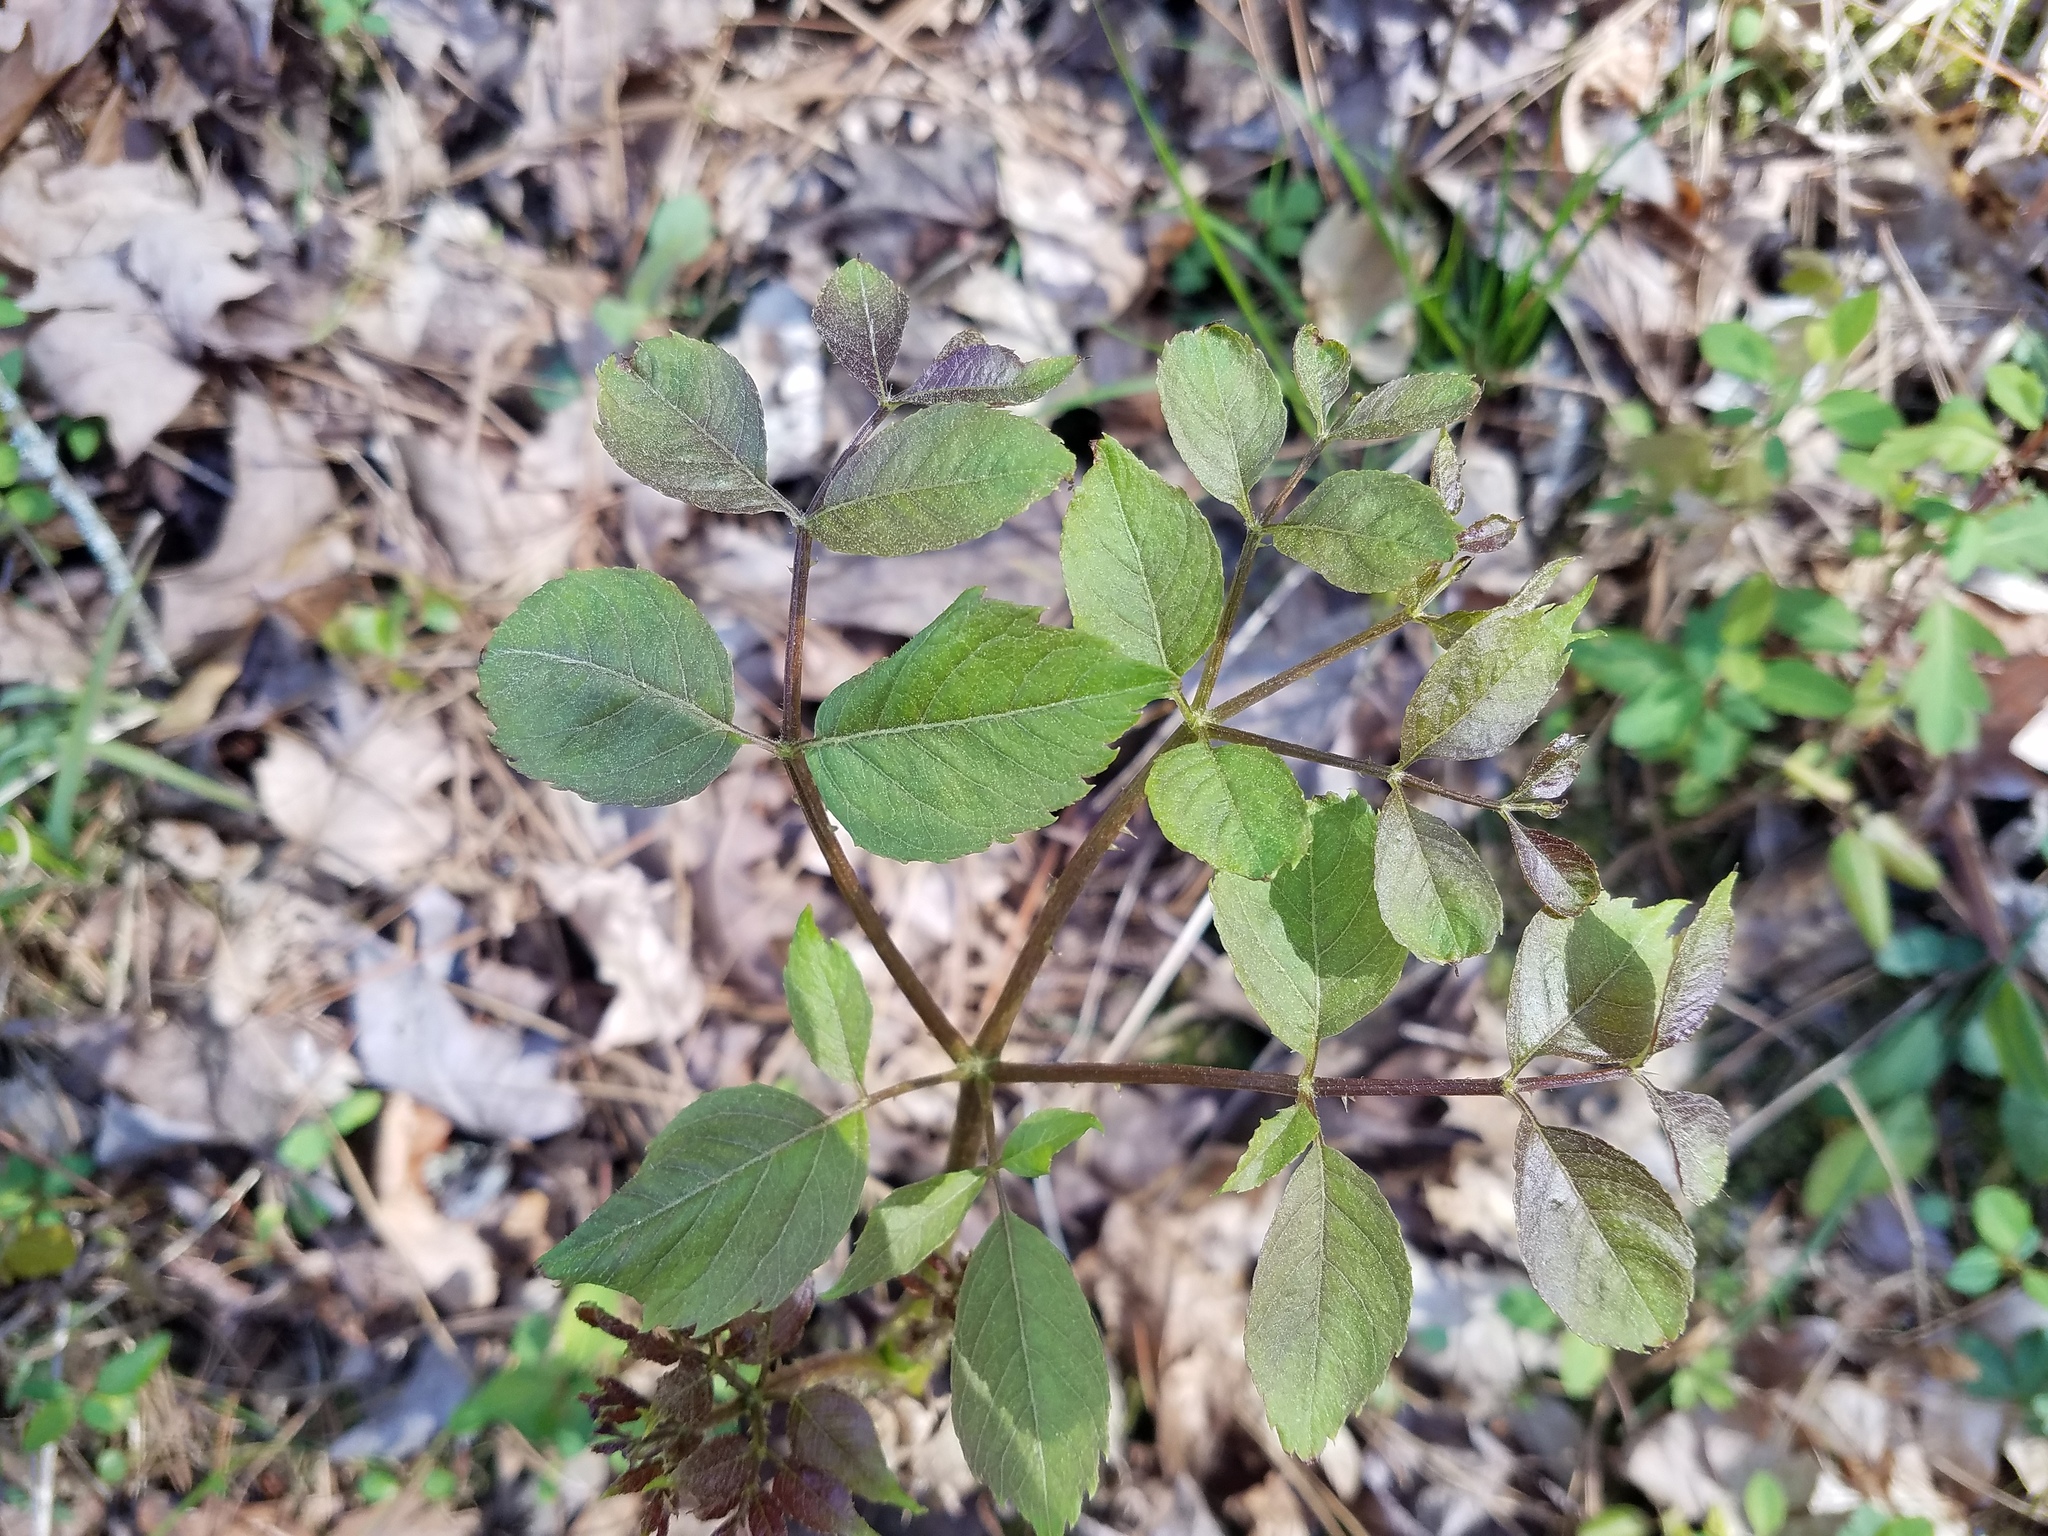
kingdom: Plantae
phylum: Tracheophyta
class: Magnoliopsida
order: Apiales
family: Araliaceae
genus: Aralia
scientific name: Aralia spinosa
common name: Hercules'-club
